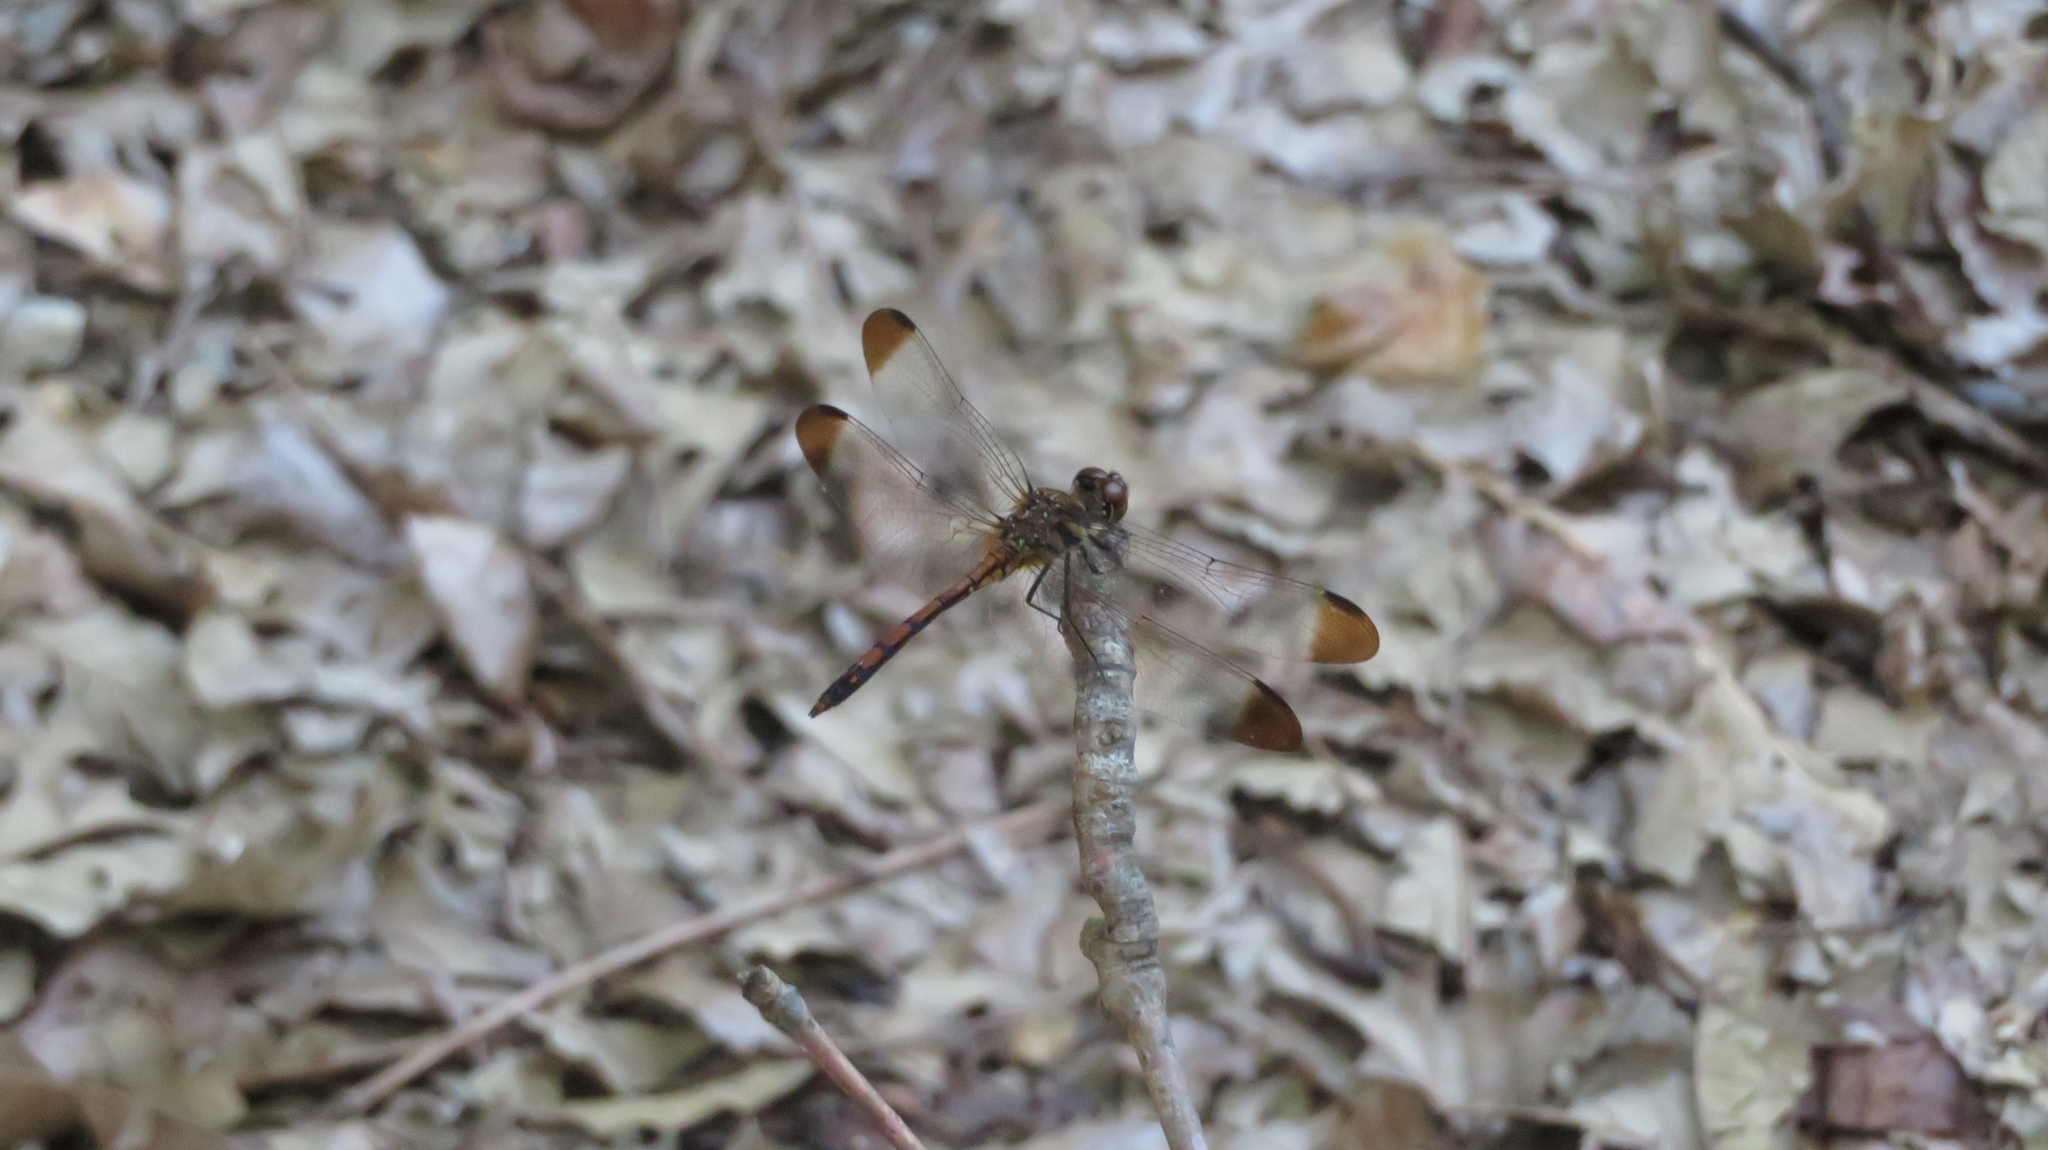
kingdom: Animalia
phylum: Arthropoda
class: Insecta
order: Odonata
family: Libellulidae
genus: Sympetrum
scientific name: Sympetrum risi
